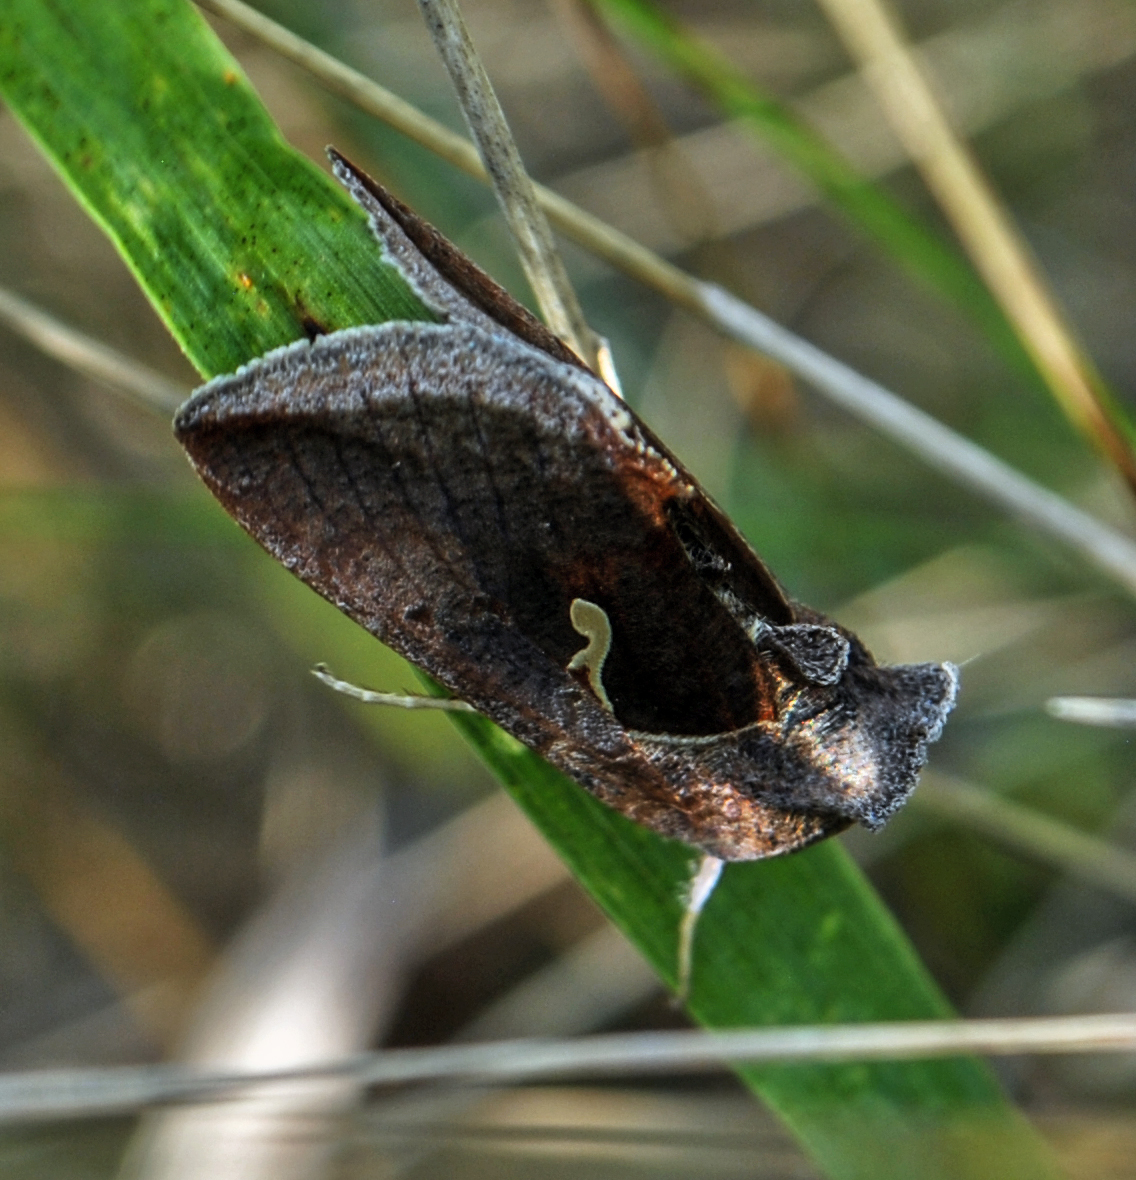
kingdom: Animalia
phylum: Arthropoda
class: Insecta
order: Lepidoptera
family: Noctuidae
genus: Anagrapha
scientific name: Anagrapha falcifera
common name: Celery looper
